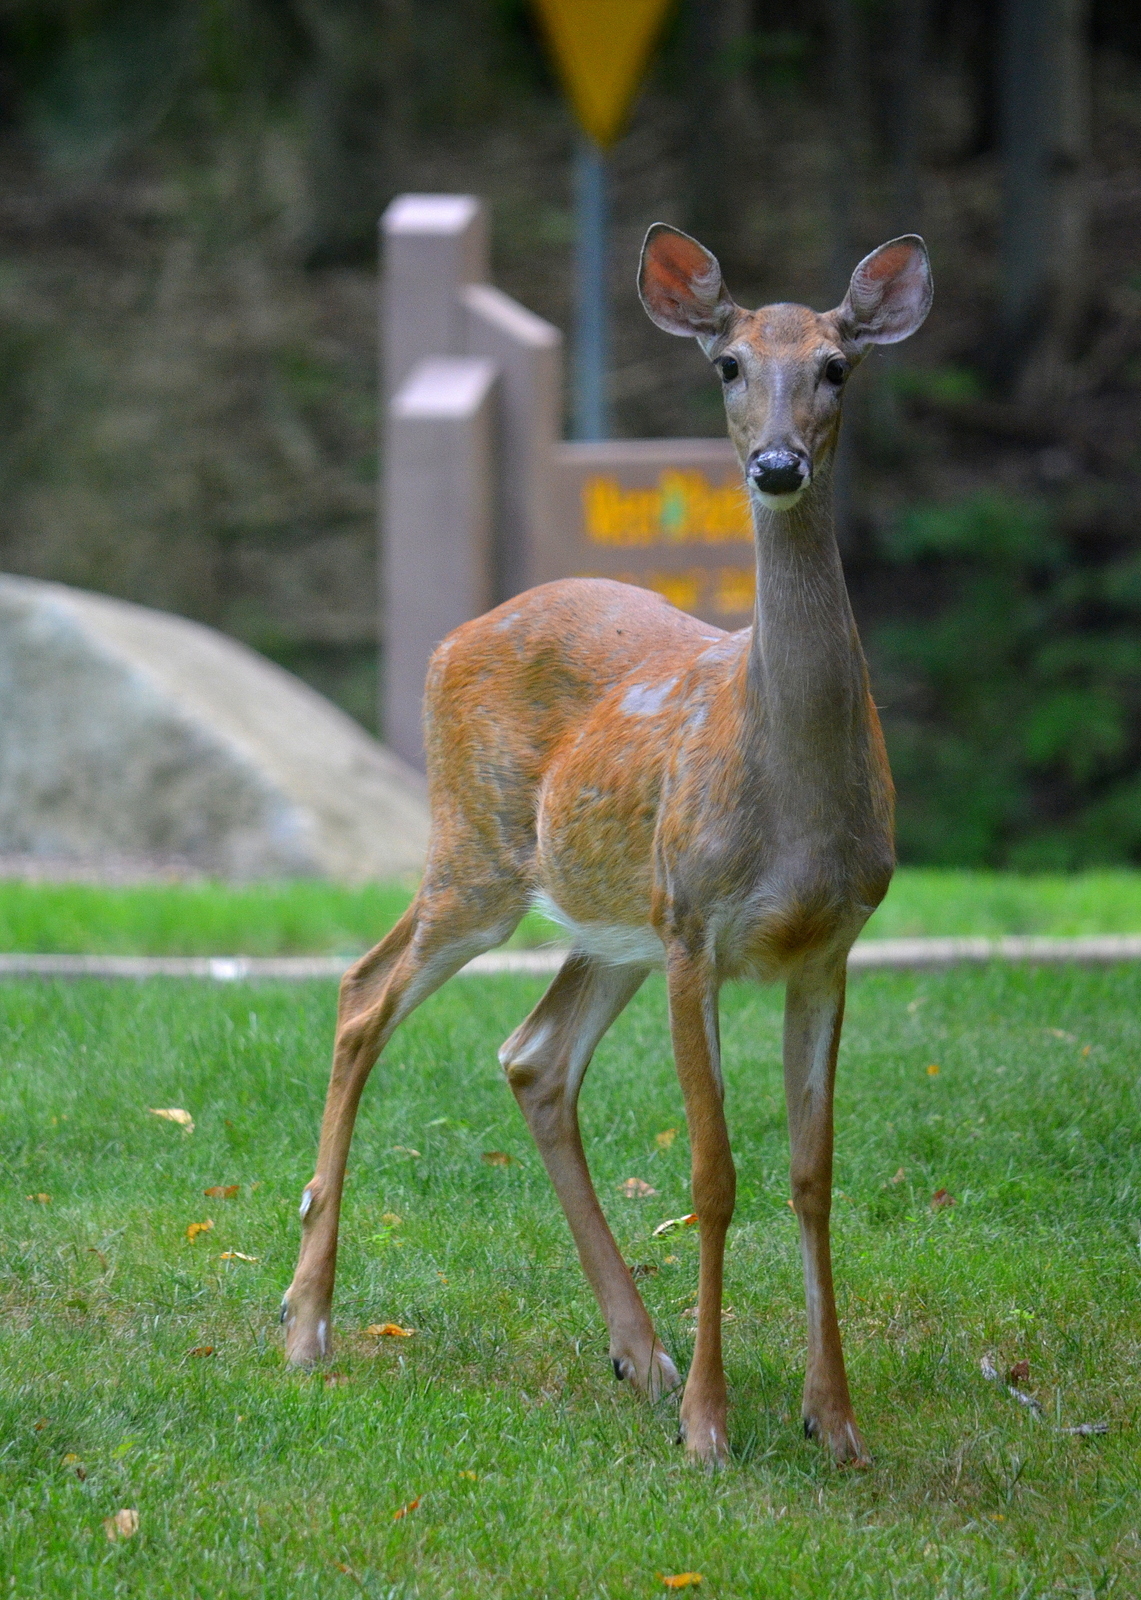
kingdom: Animalia
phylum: Chordata
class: Mammalia
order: Artiodactyla
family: Cervidae
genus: Odocoileus
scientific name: Odocoileus virginianus
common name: White-tailed deer
